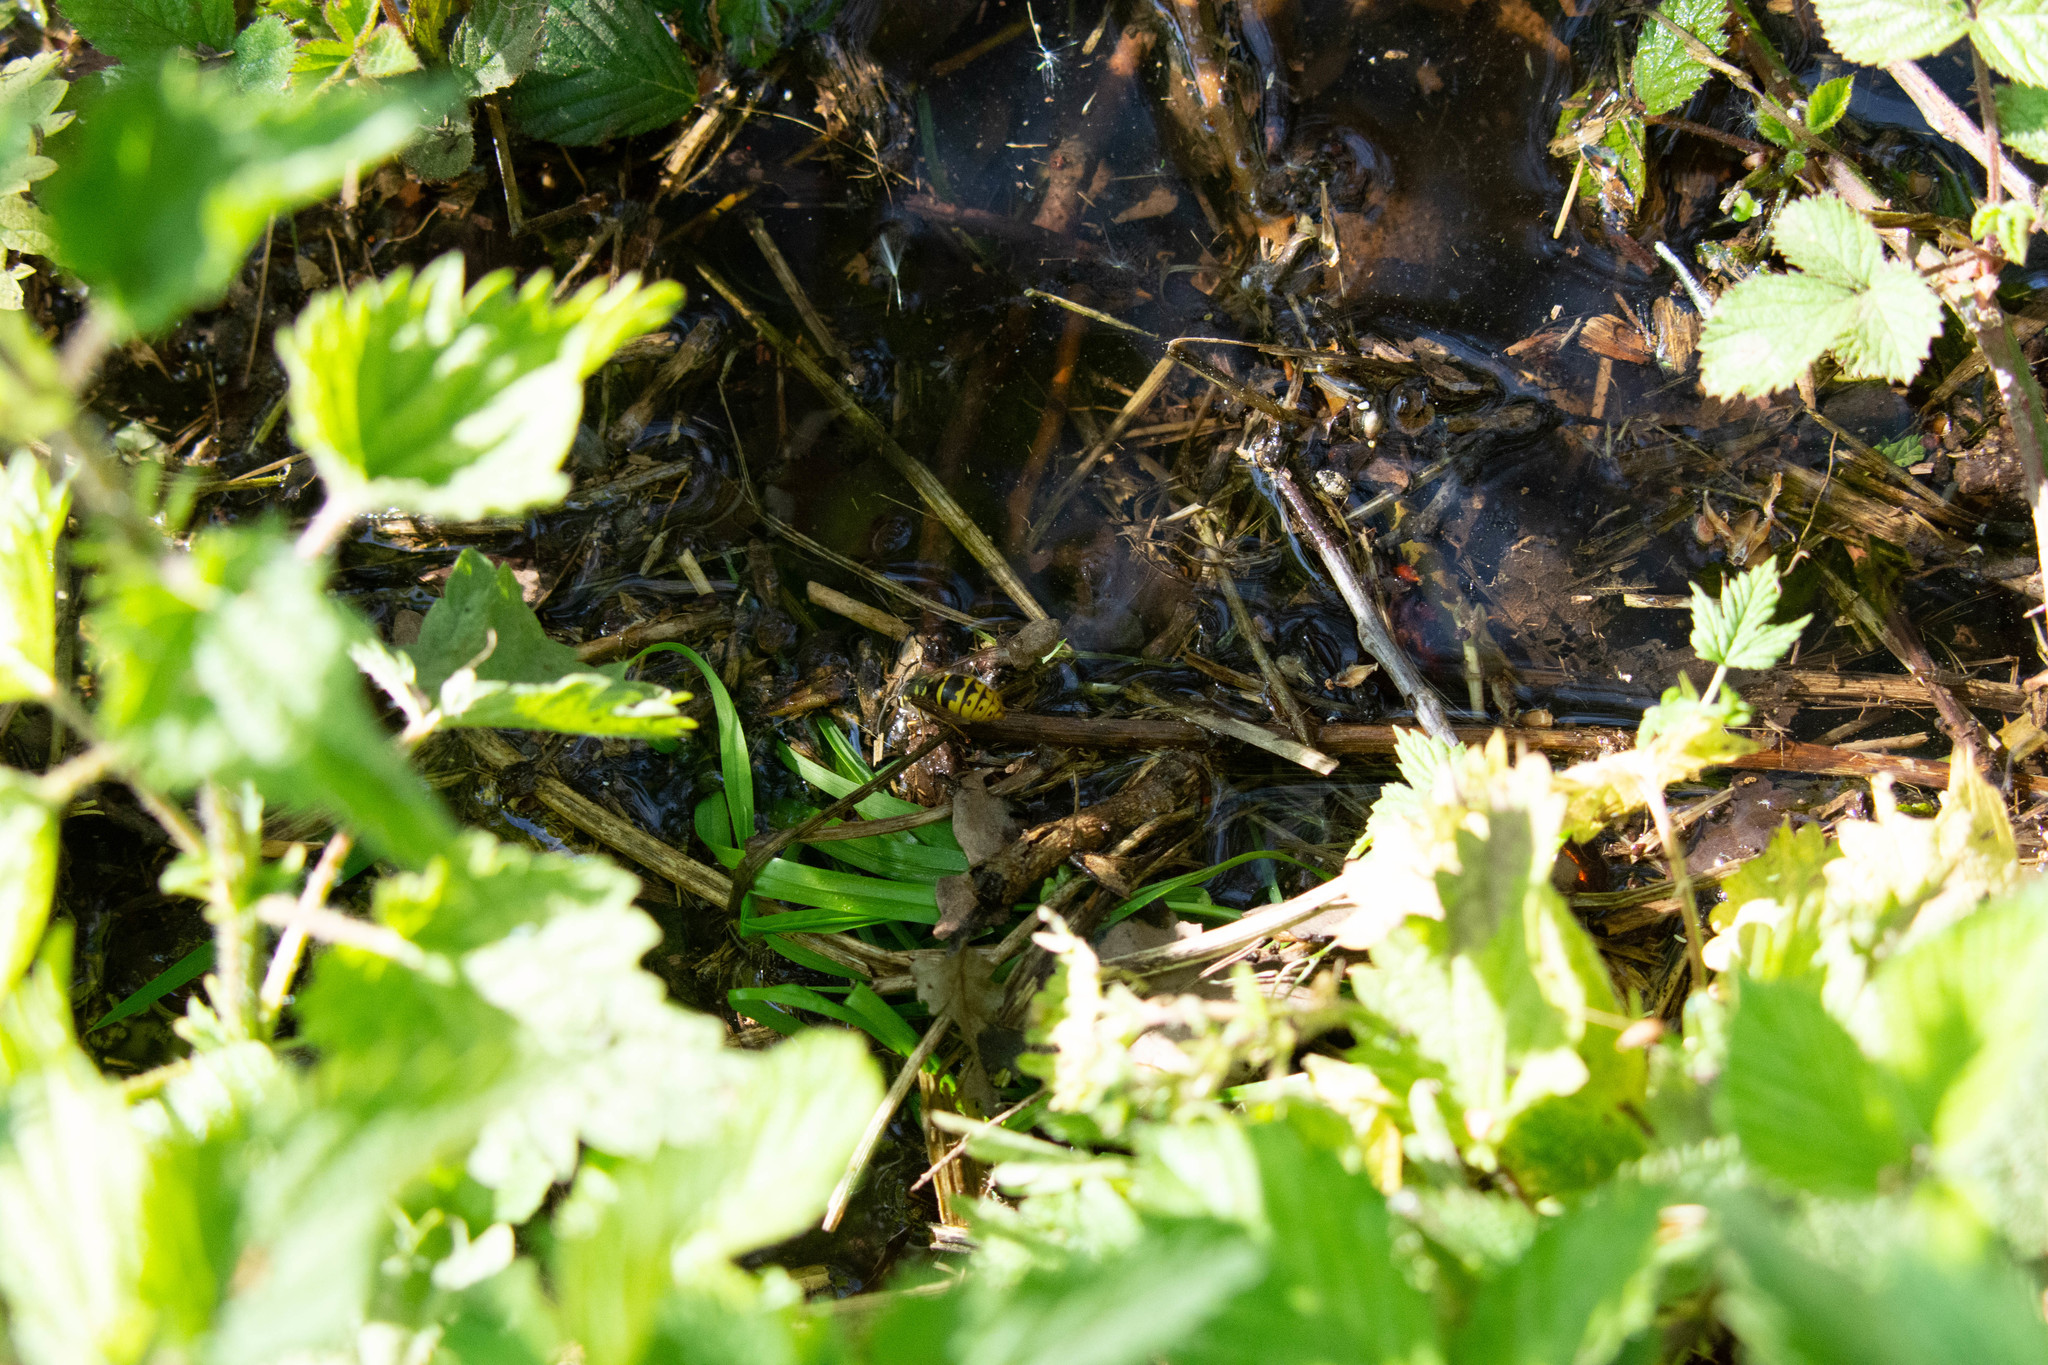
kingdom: Animalia
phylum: Arthropoda
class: Insecta
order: Hymenoptera
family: Vespidae
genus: Vespula
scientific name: Vespula vulgaris
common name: Common wasp
